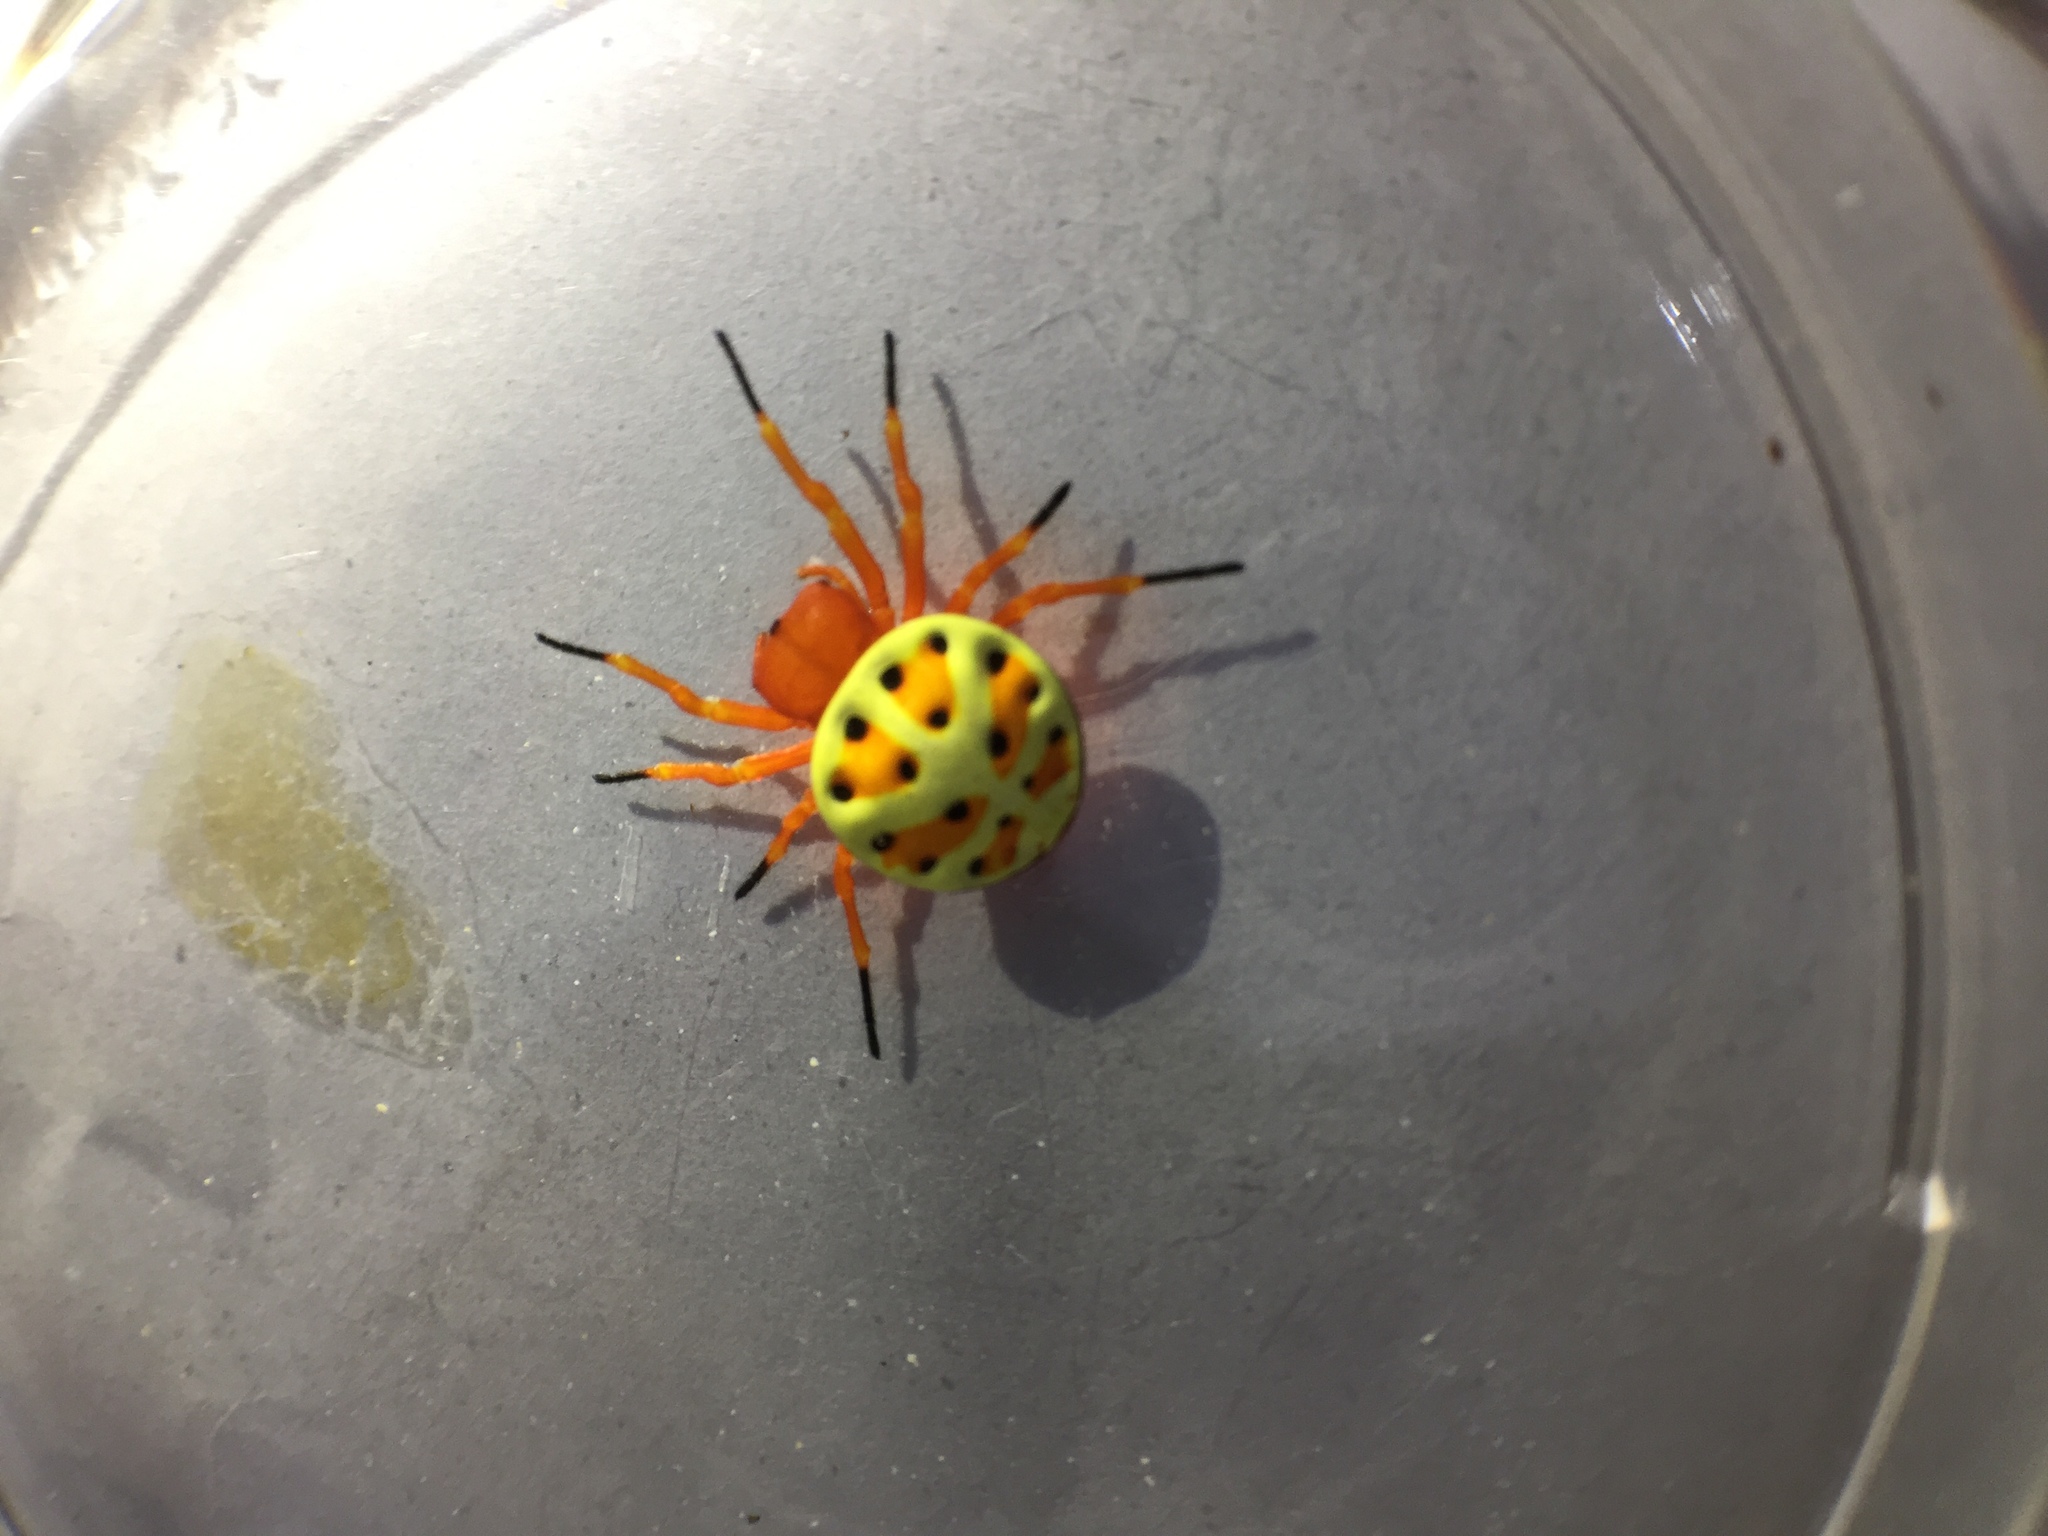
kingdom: Animalia
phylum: Arthropoda
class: Arachnida
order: Araneae
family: Araneidae
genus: Encyosaccus
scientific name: Encyosaccus sexmaculatus
